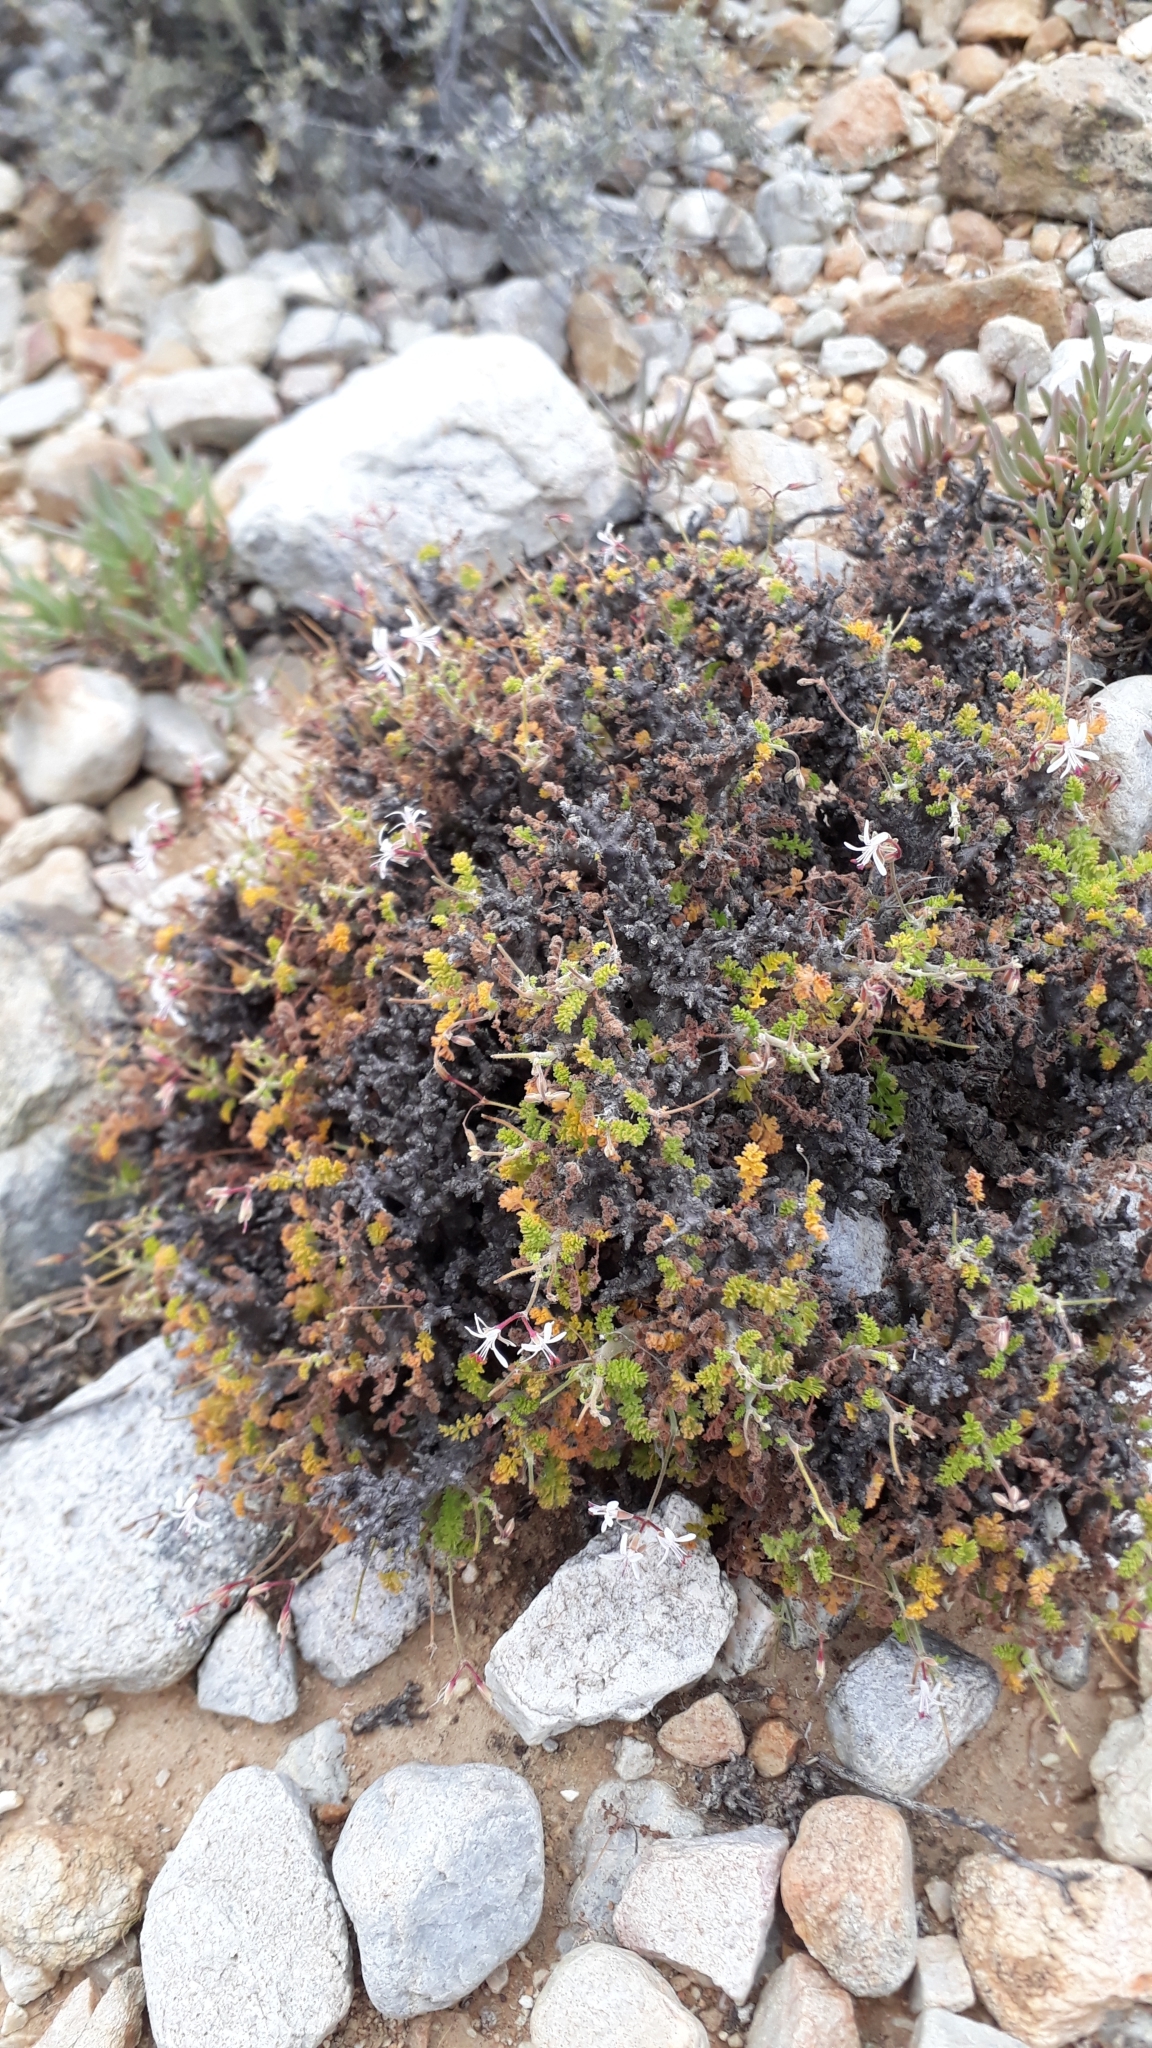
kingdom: Plantae
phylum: Tracheophyta
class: Magnoliopsida
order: Geraniales
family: Geraniaceae
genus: Pelargonium
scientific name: Pelargonium alternans
